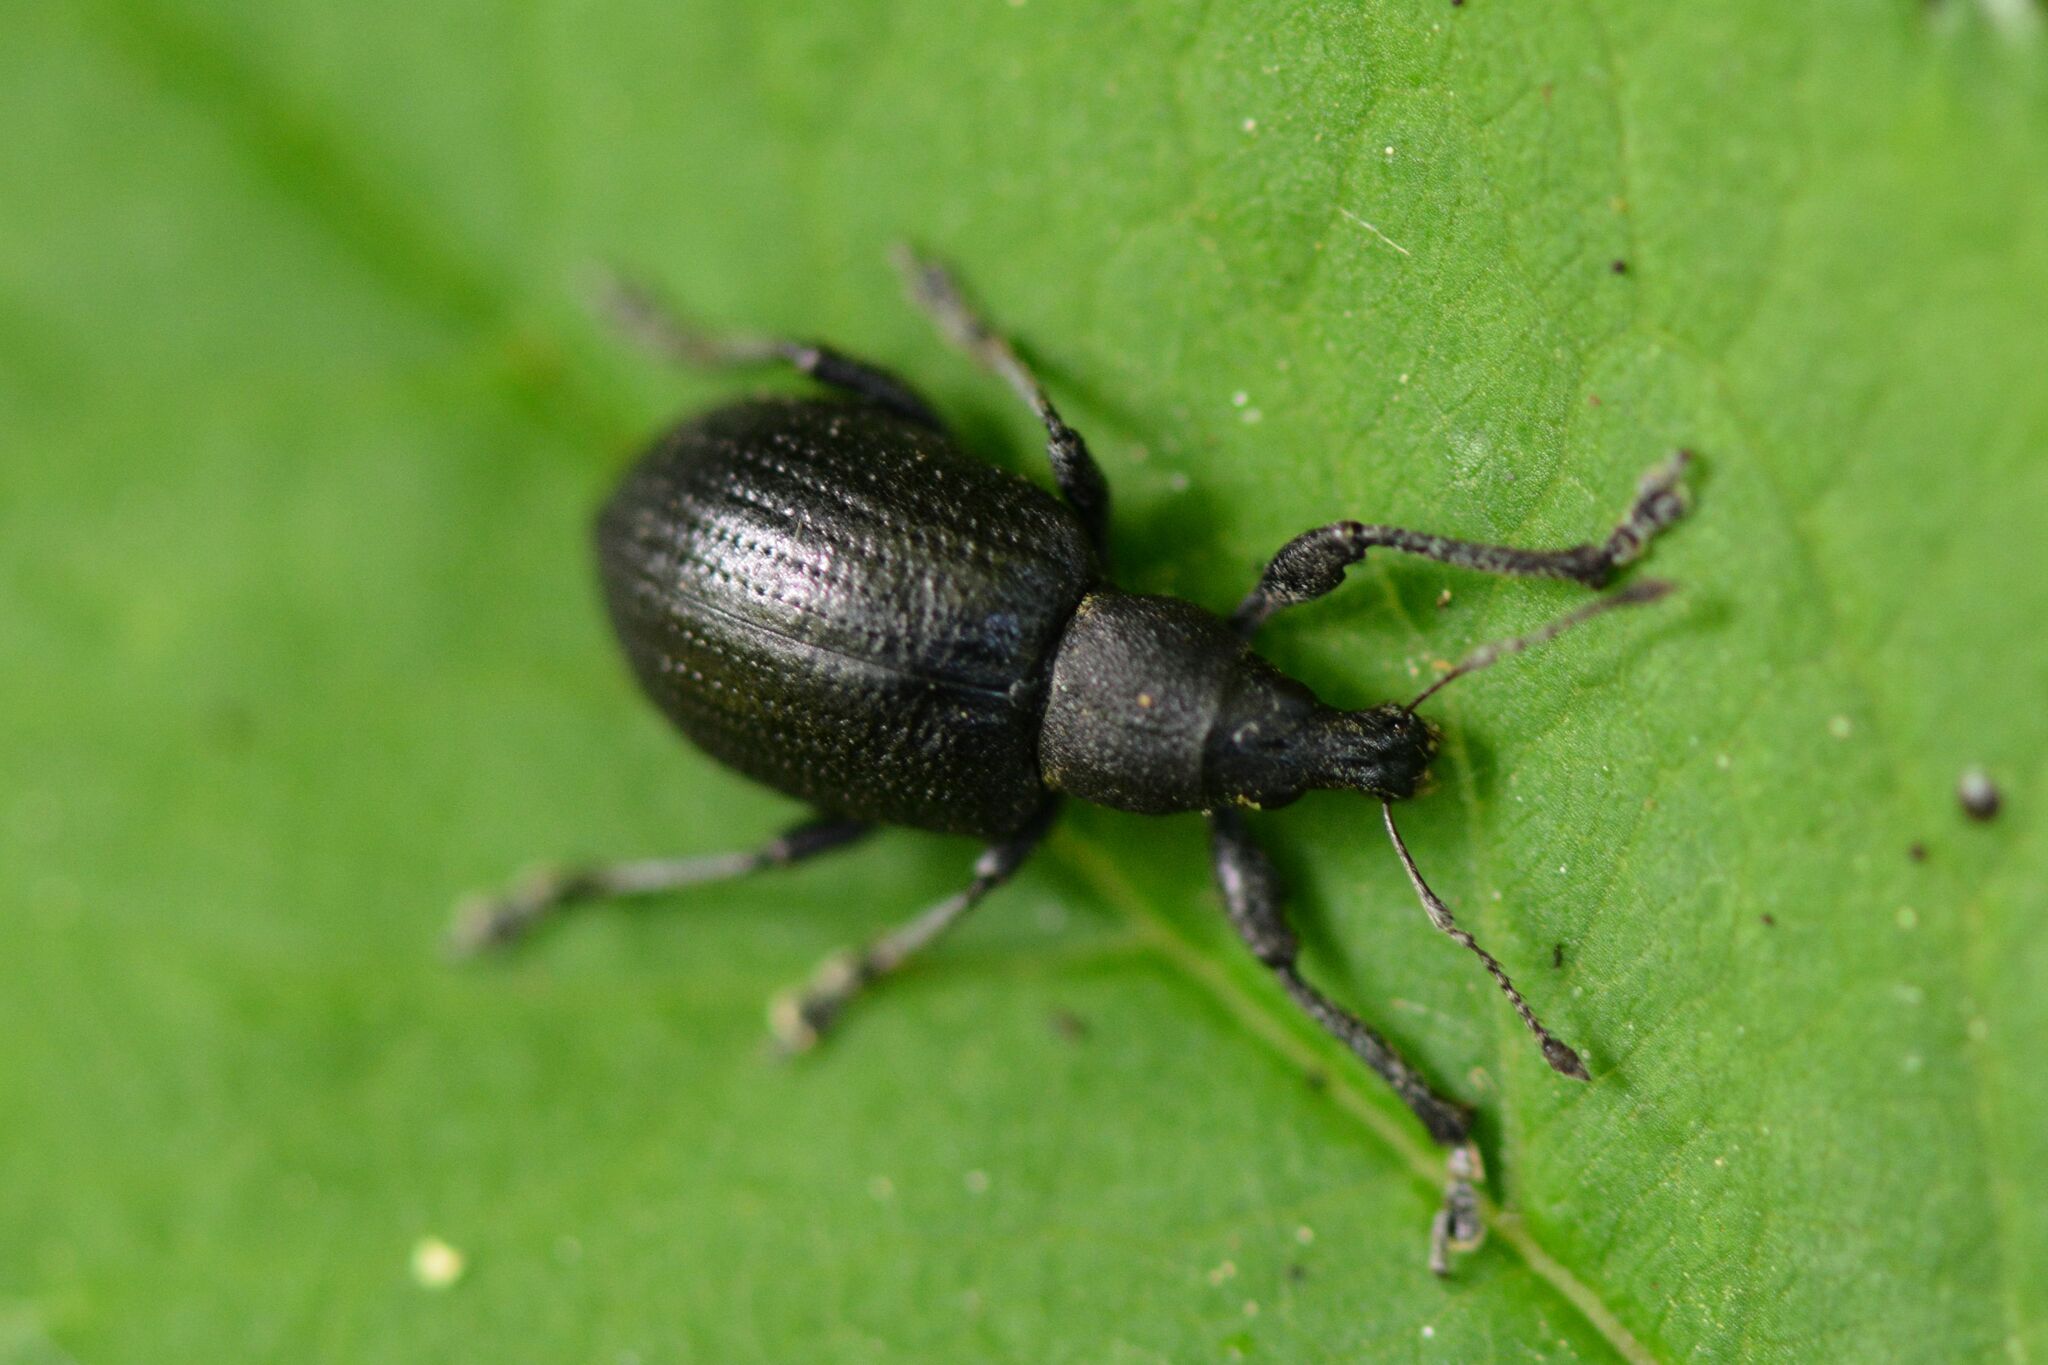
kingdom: Animalia
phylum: Arthropoda
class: Insecta
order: Coleoptera
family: Curculionidae
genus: Liophloeus
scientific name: Liophloeus tessulatus
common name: Weevil
